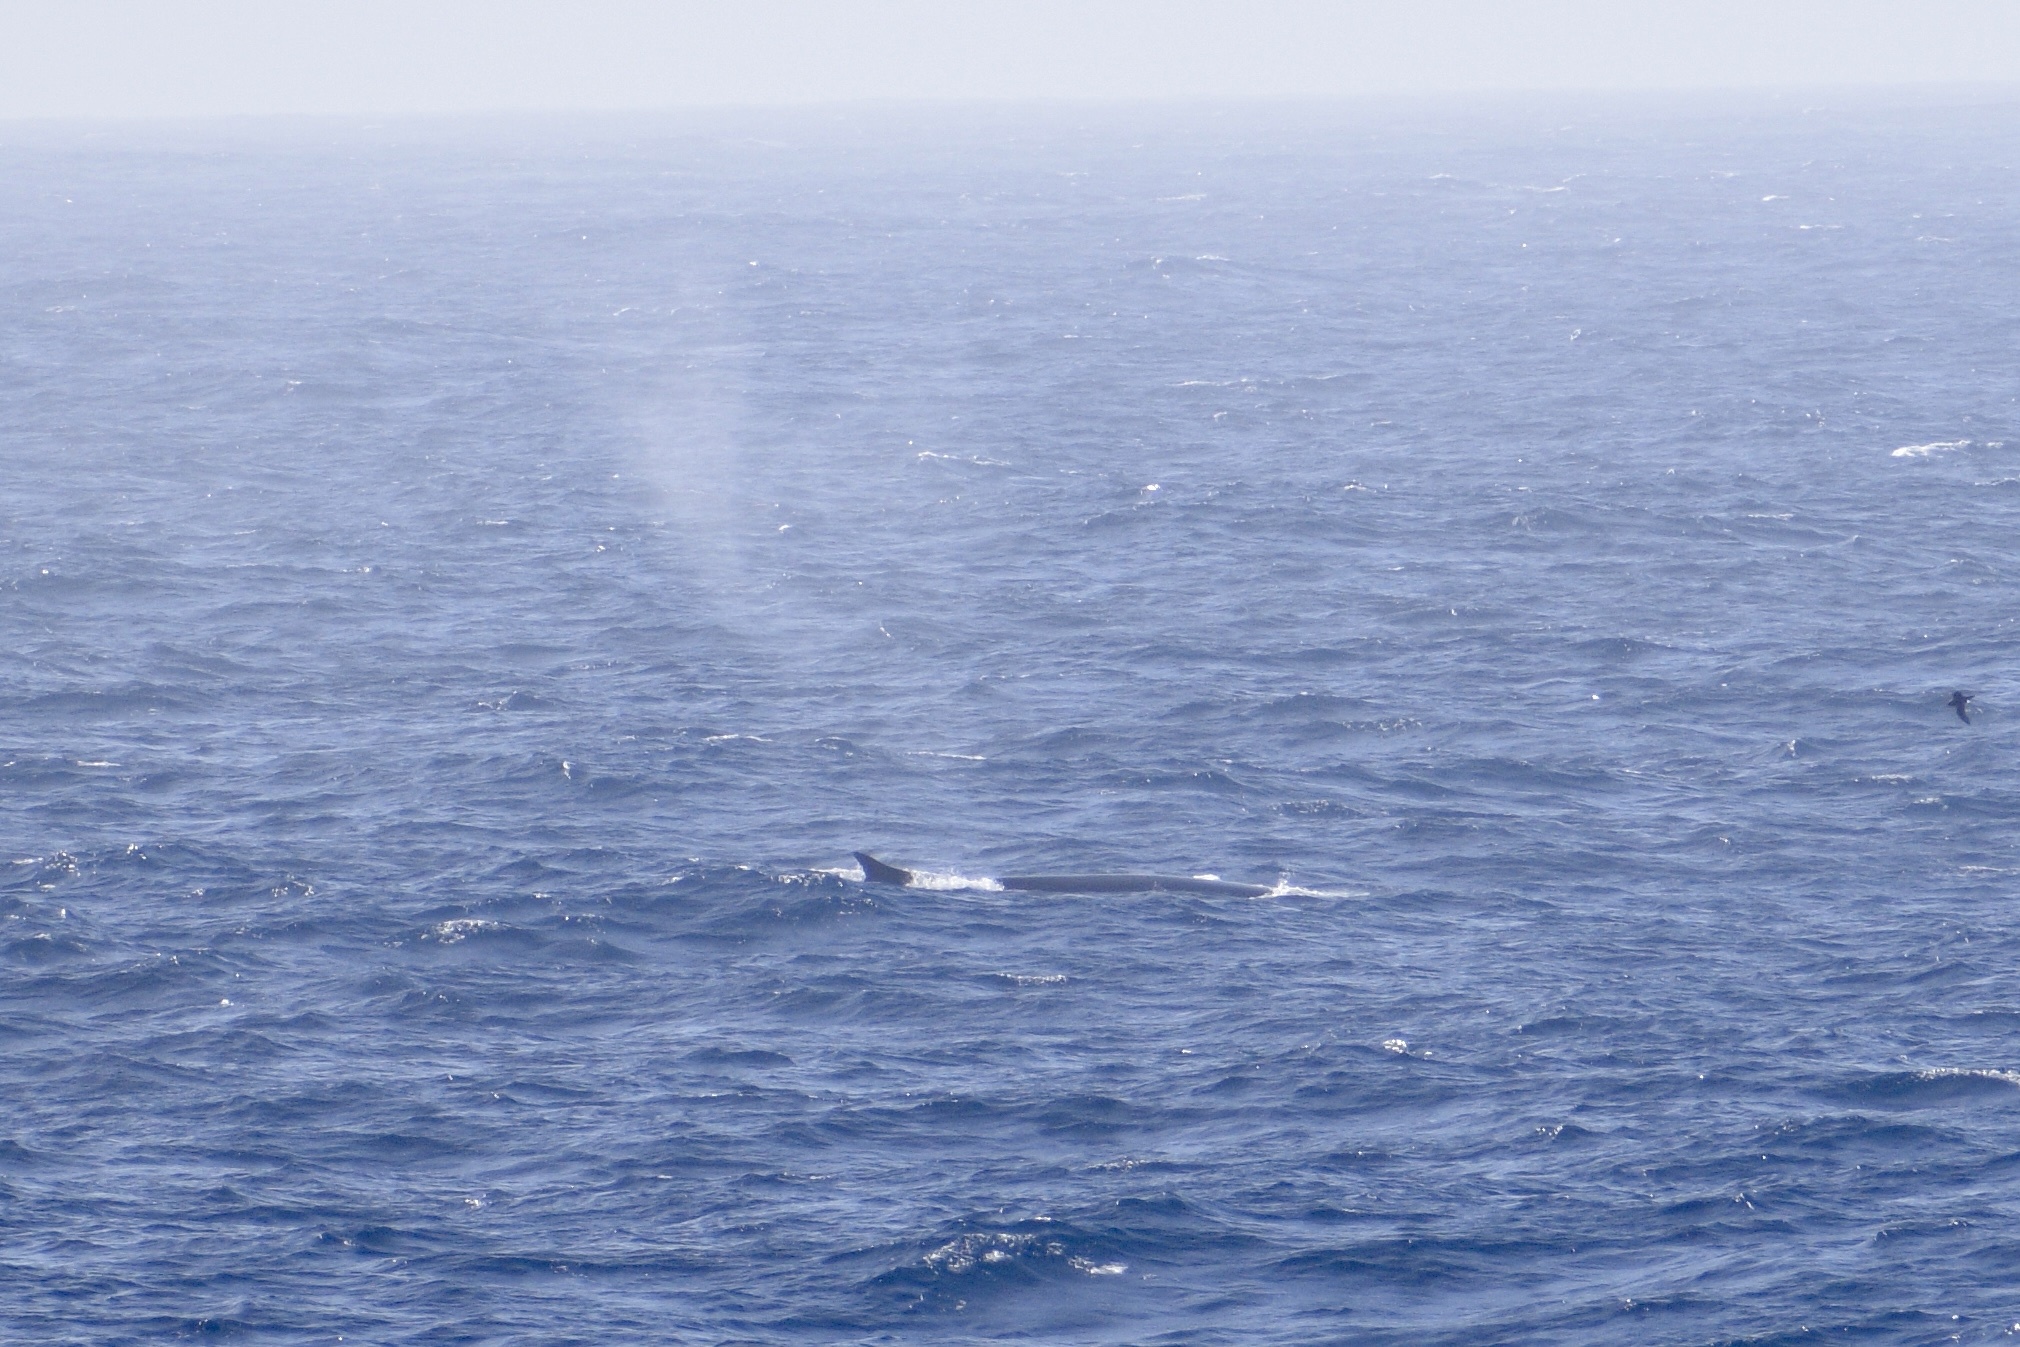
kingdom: Animalia
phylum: Chordata
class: Mammalia
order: Cetacea
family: Balaenopteridae
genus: Balaenoptera
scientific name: Balaenoptera physalus
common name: Fin whale
